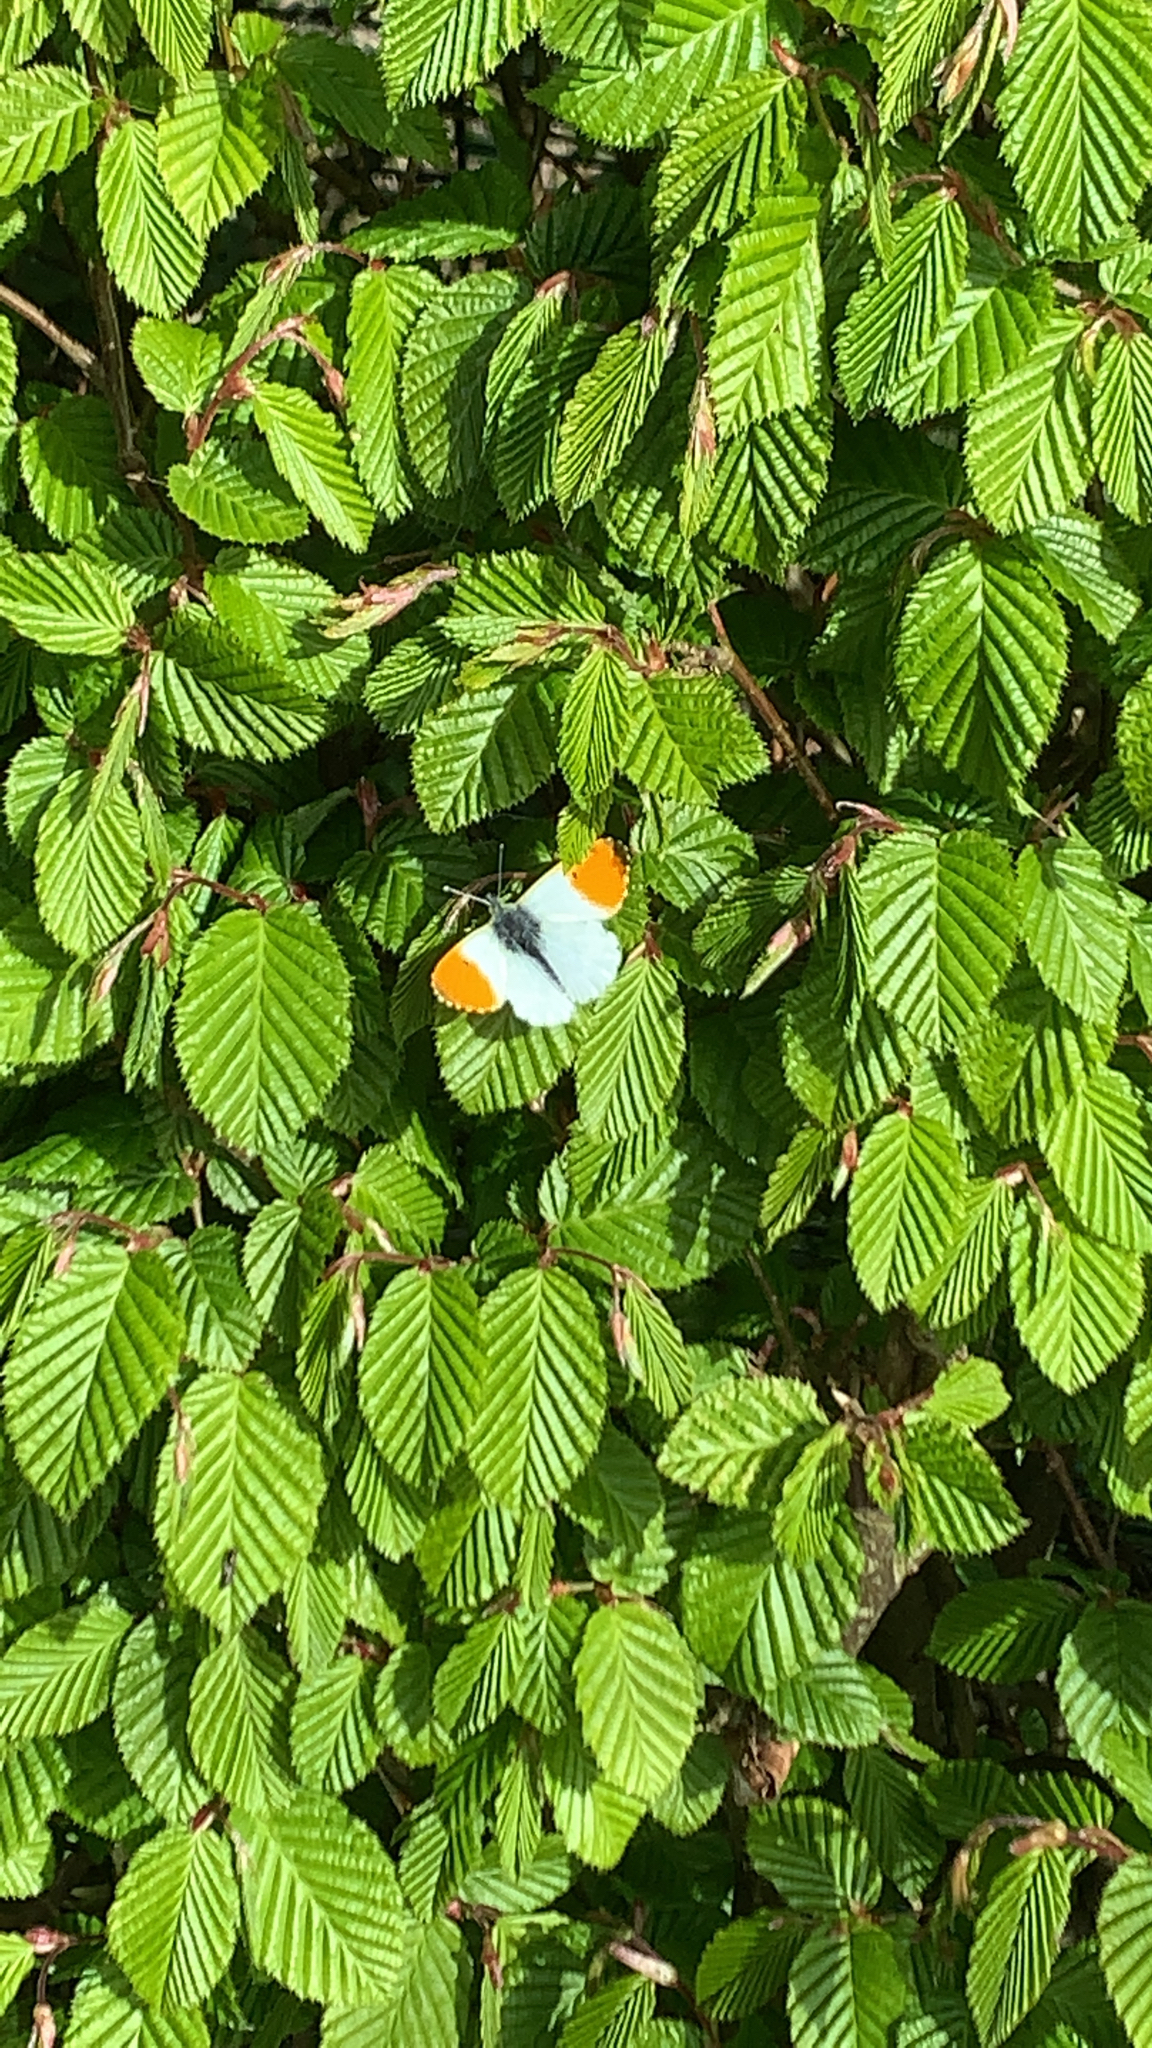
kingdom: Animalia
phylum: Arthropoda
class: Insecta
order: Lepidoptera
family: Pieridae
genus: Anthocharis
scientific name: Anthocharis cardamines
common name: Orange-tip
